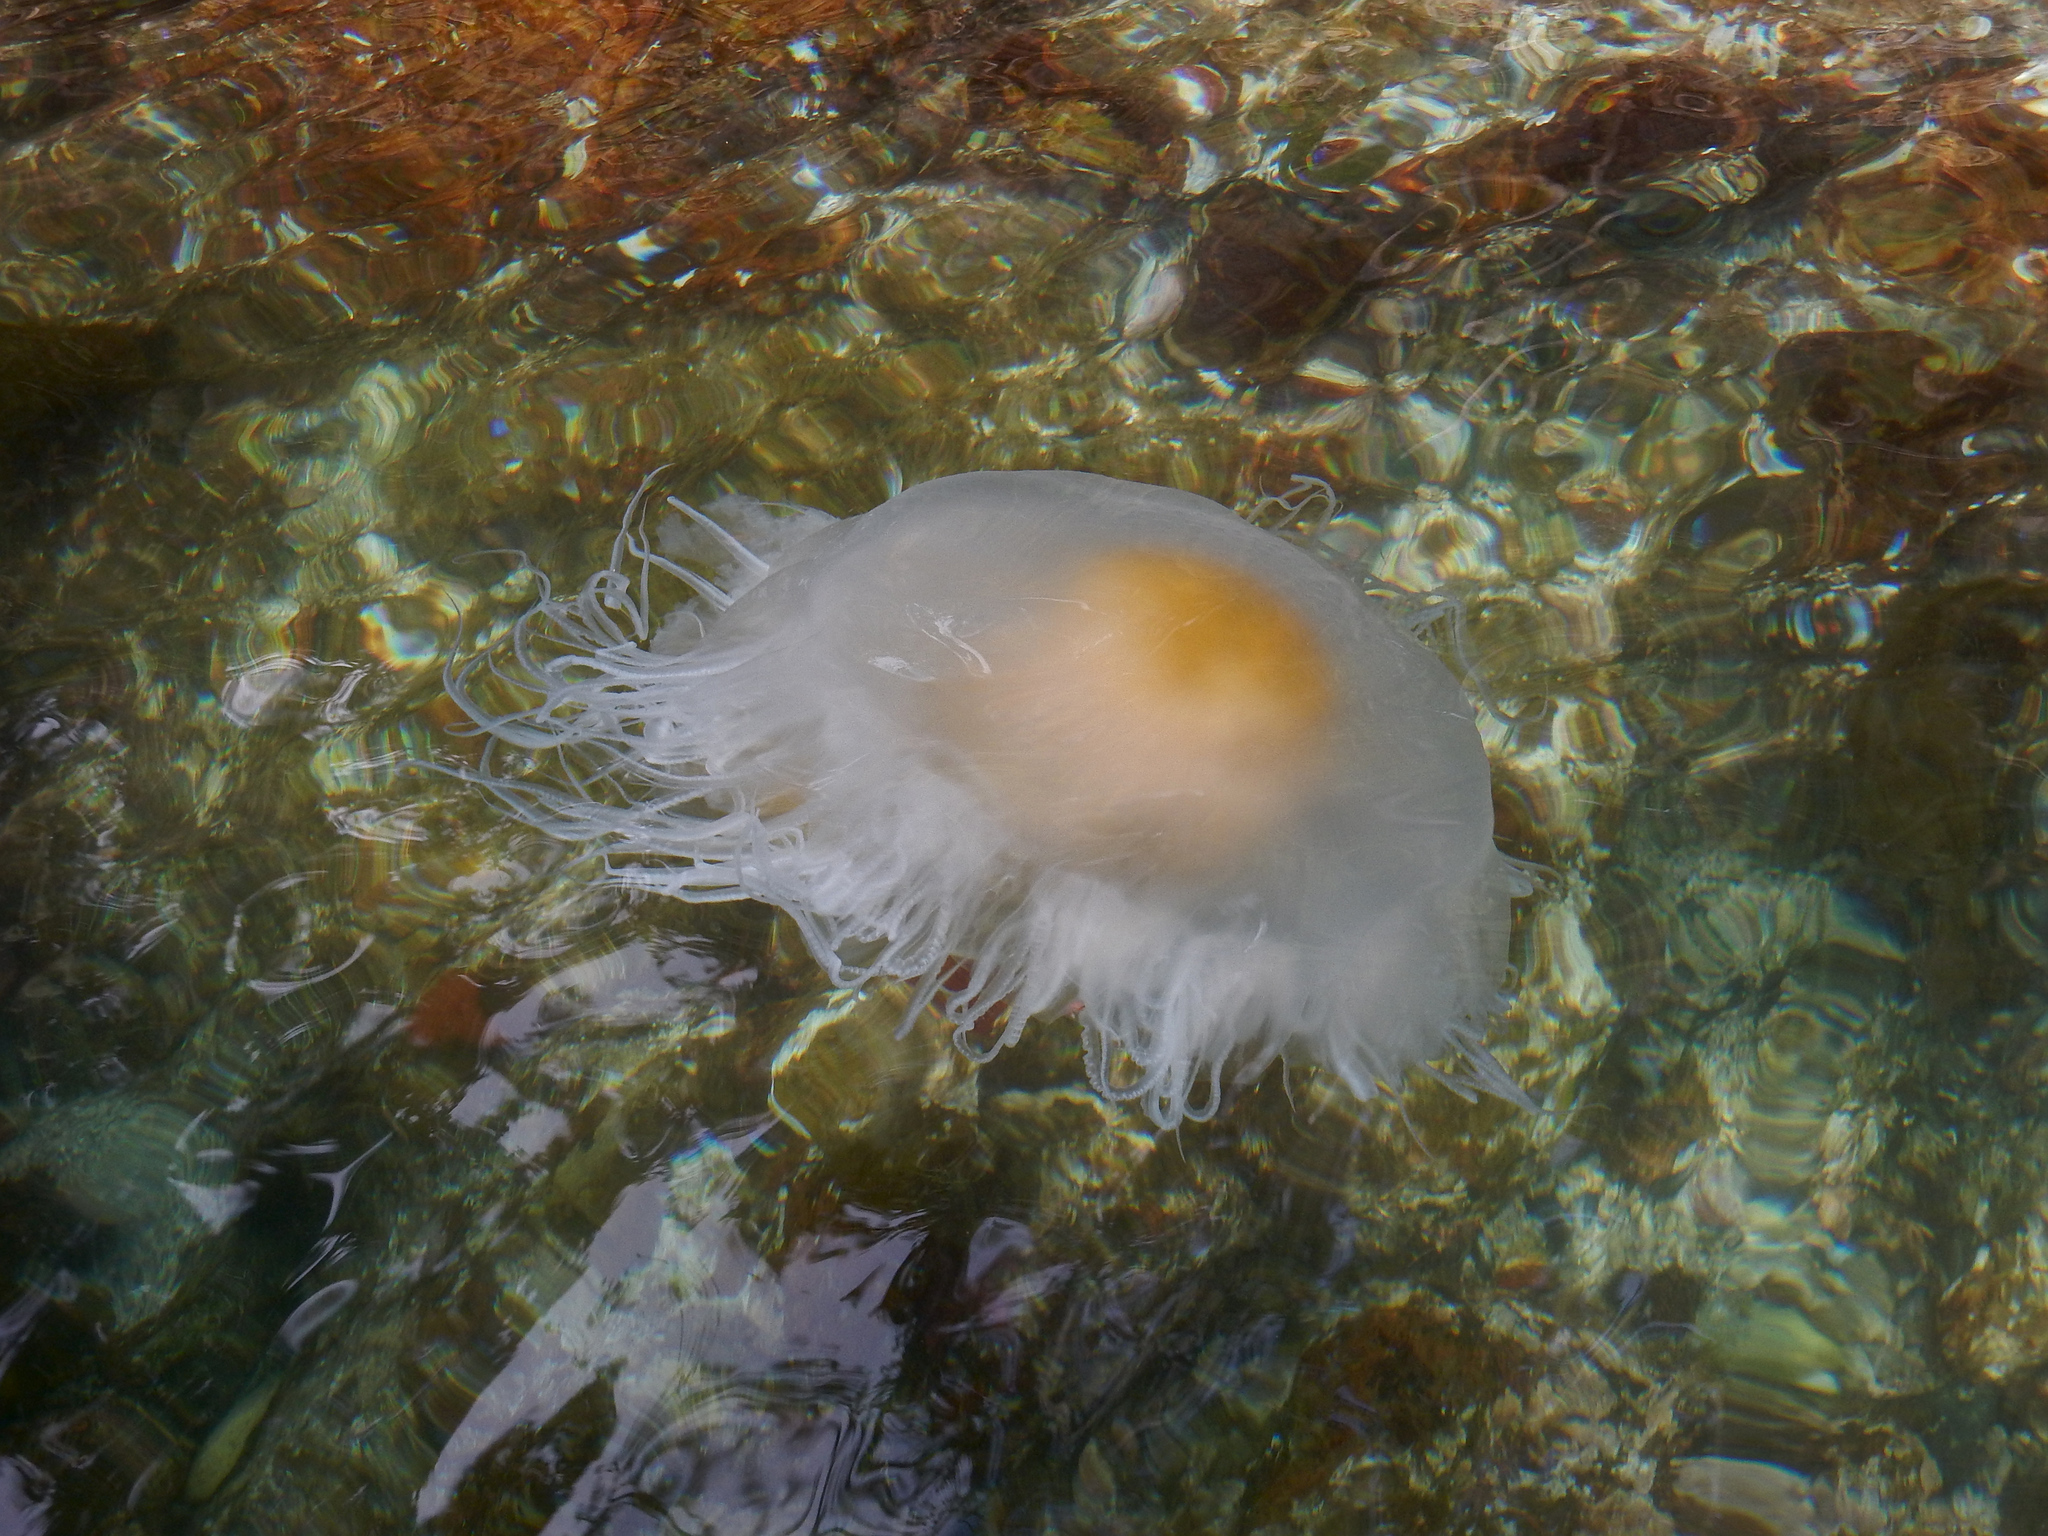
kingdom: Animalia
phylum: Cnidaria
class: Scyphozoa
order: Semaeostomeae
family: Phacellophoridae
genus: Phacellophora
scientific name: Phacellophora camtschatica
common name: Fried-egg jellyfish
